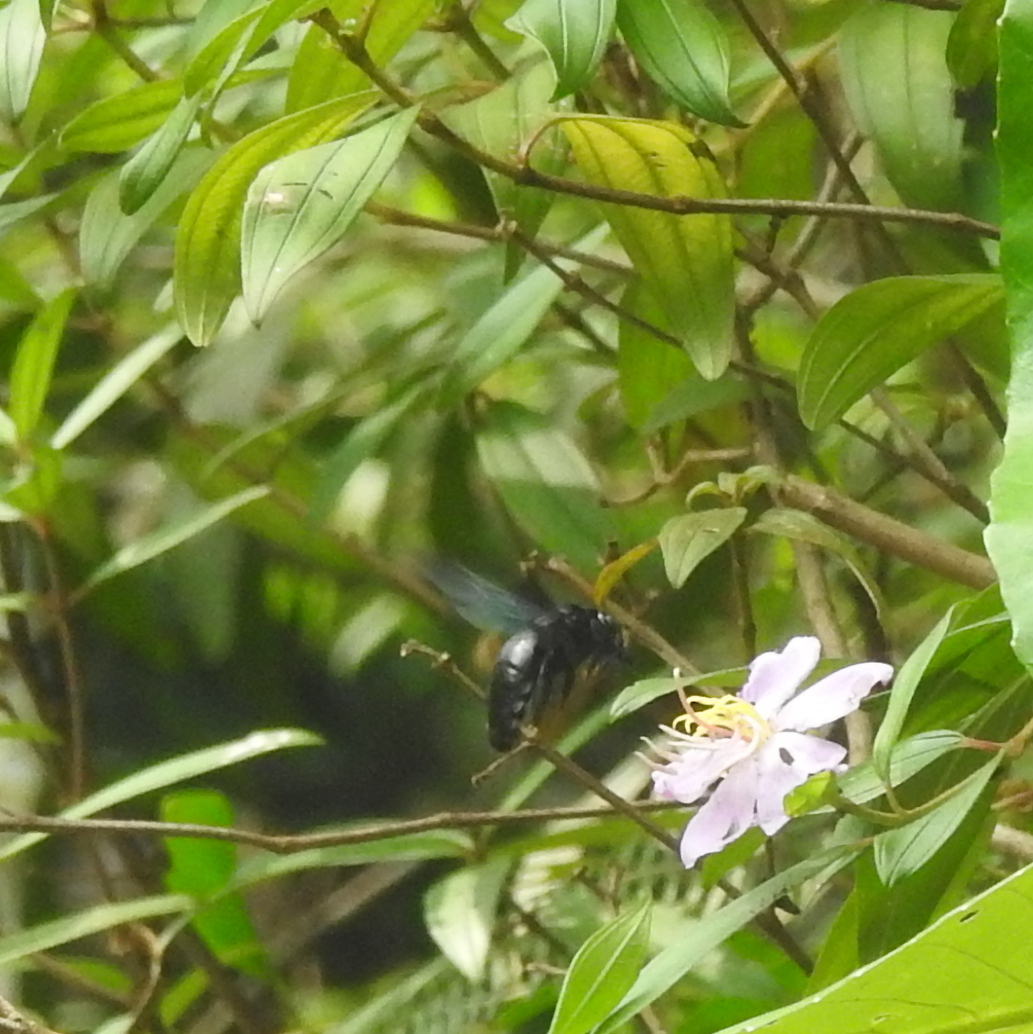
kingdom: Animalia
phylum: Arthropoda
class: Insecta
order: Hymenoptera
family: Apidae
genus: Xylocopa
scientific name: Xylocopa latipes
